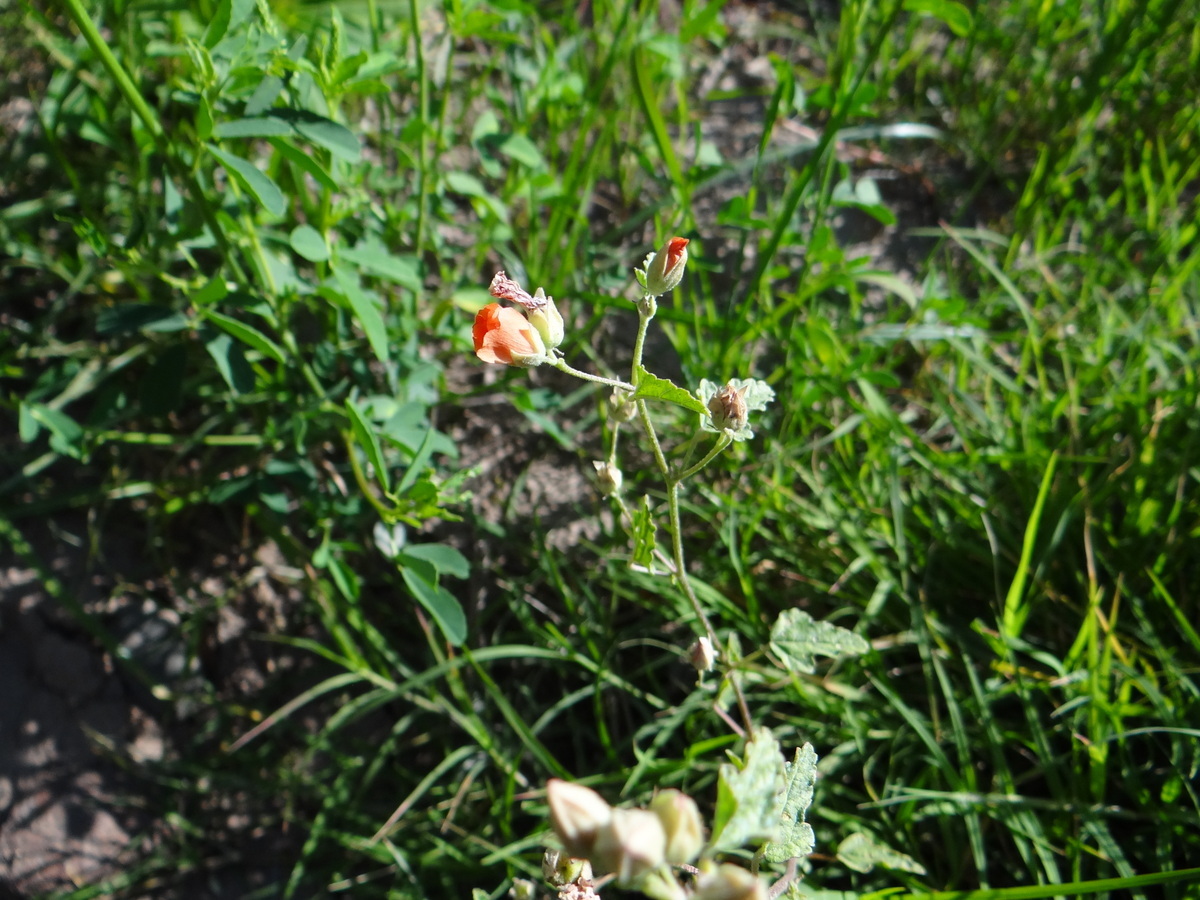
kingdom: Plantae
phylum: Tracheophyta
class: Magnoliopsida
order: Malvales
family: Malvaceae
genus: Sphaeralcea
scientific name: Sphaeralcea miniata
